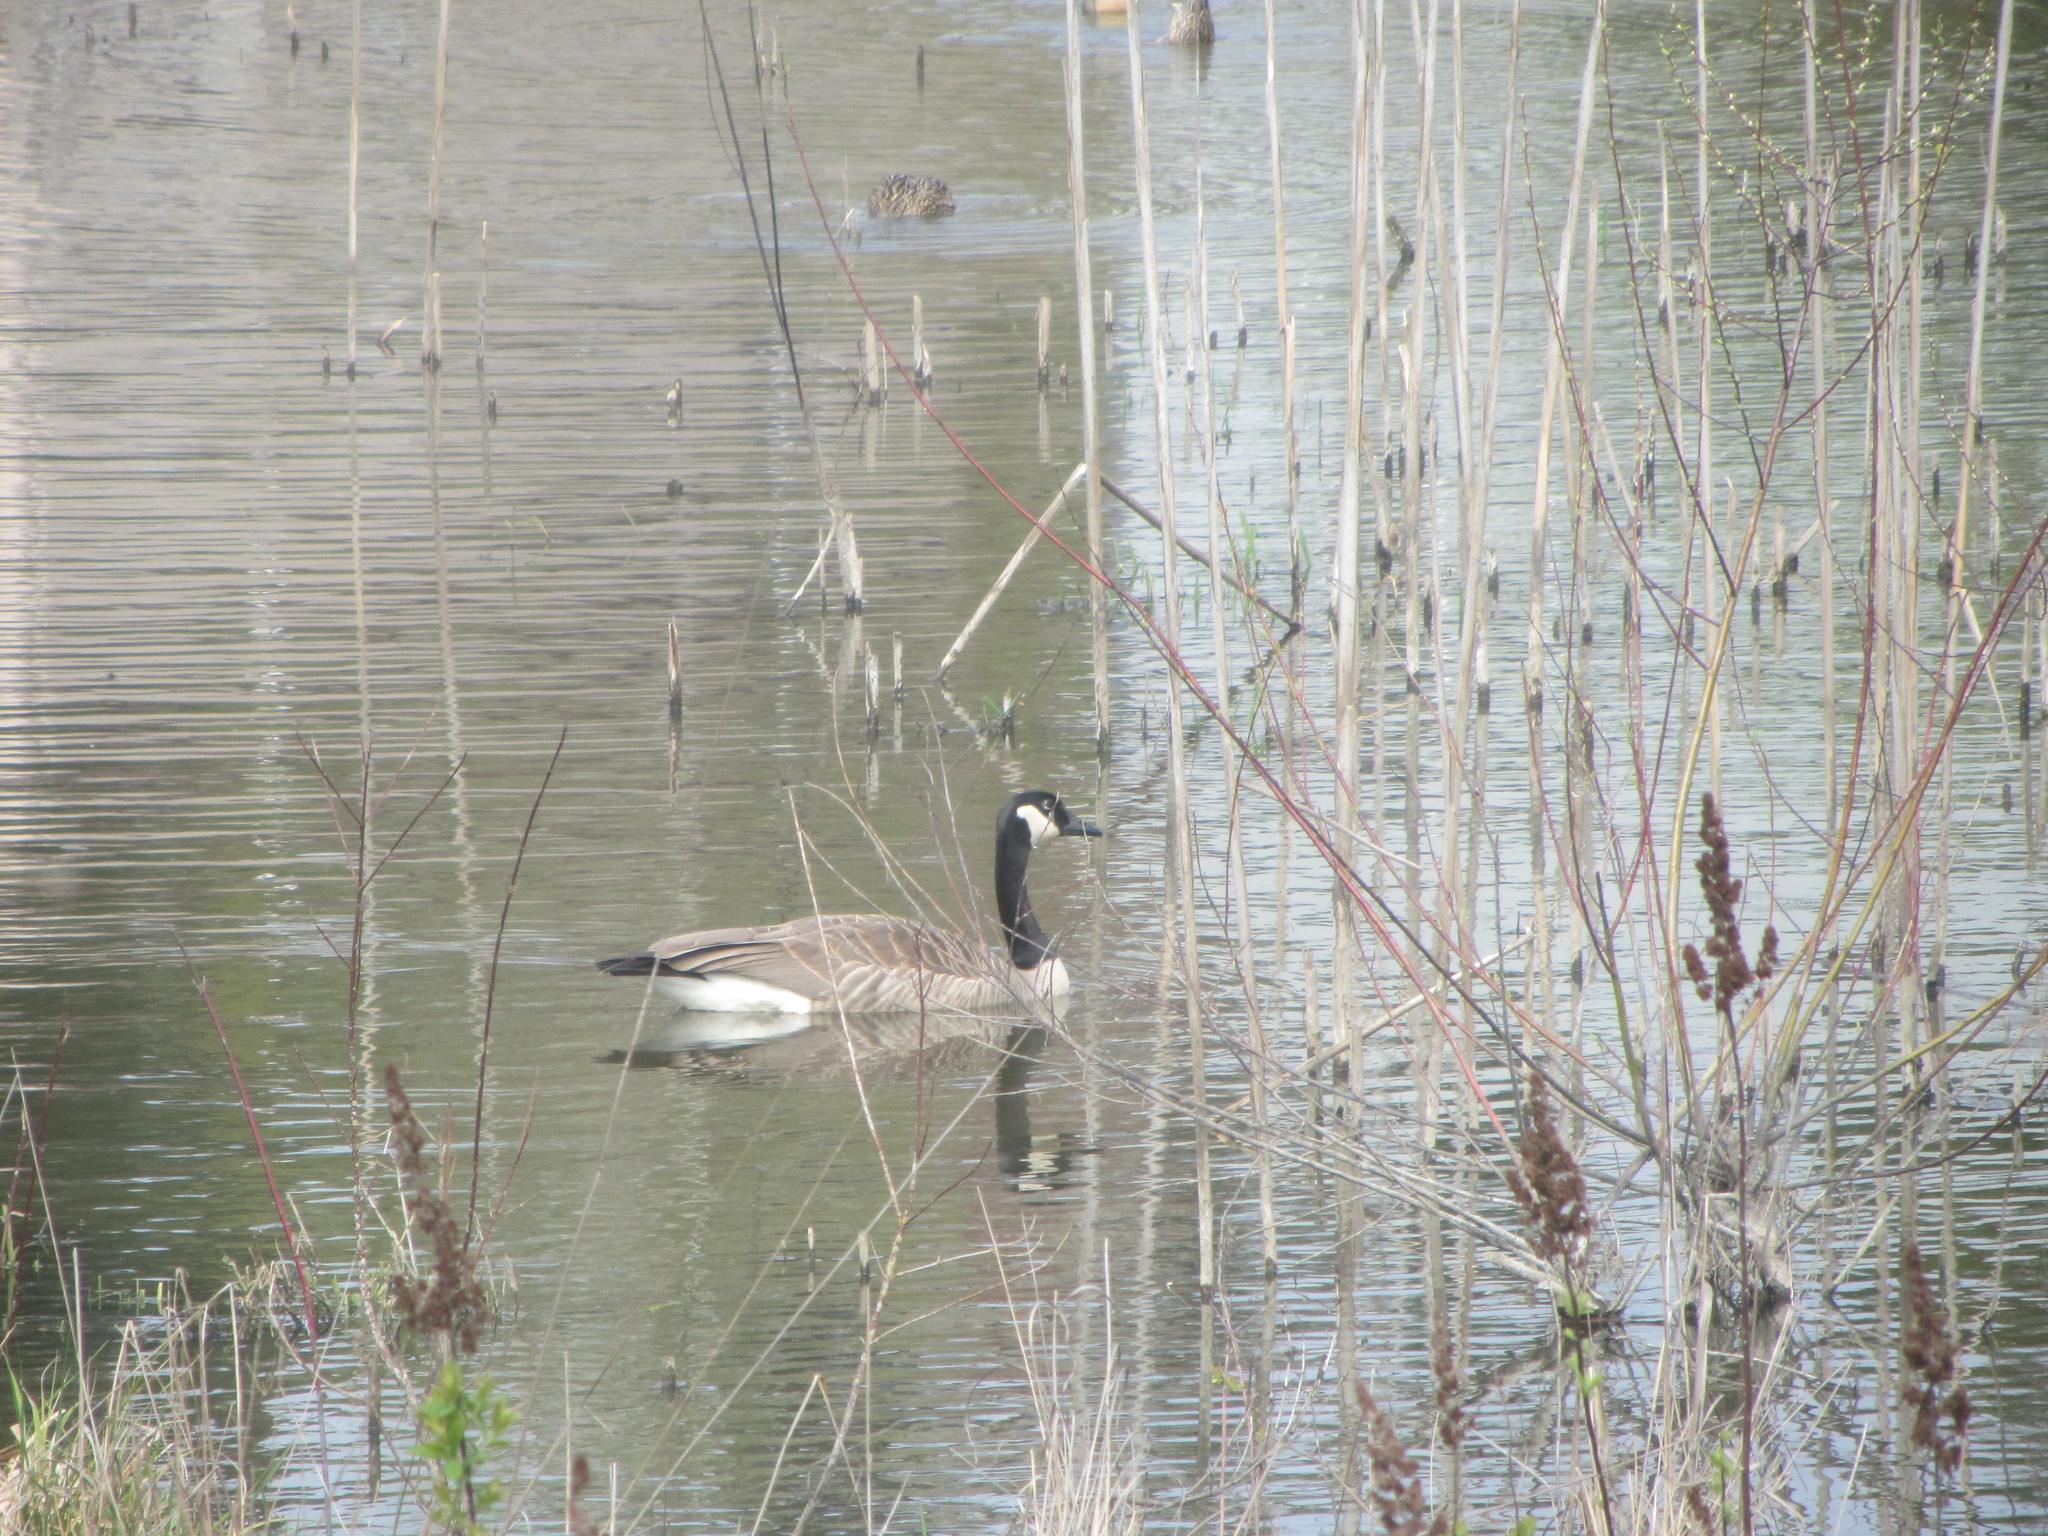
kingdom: Animalia
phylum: Chordata
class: Aves
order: Anseriformes
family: Anatidae
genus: Branta
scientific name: Branta canadensis
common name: Canada goose
